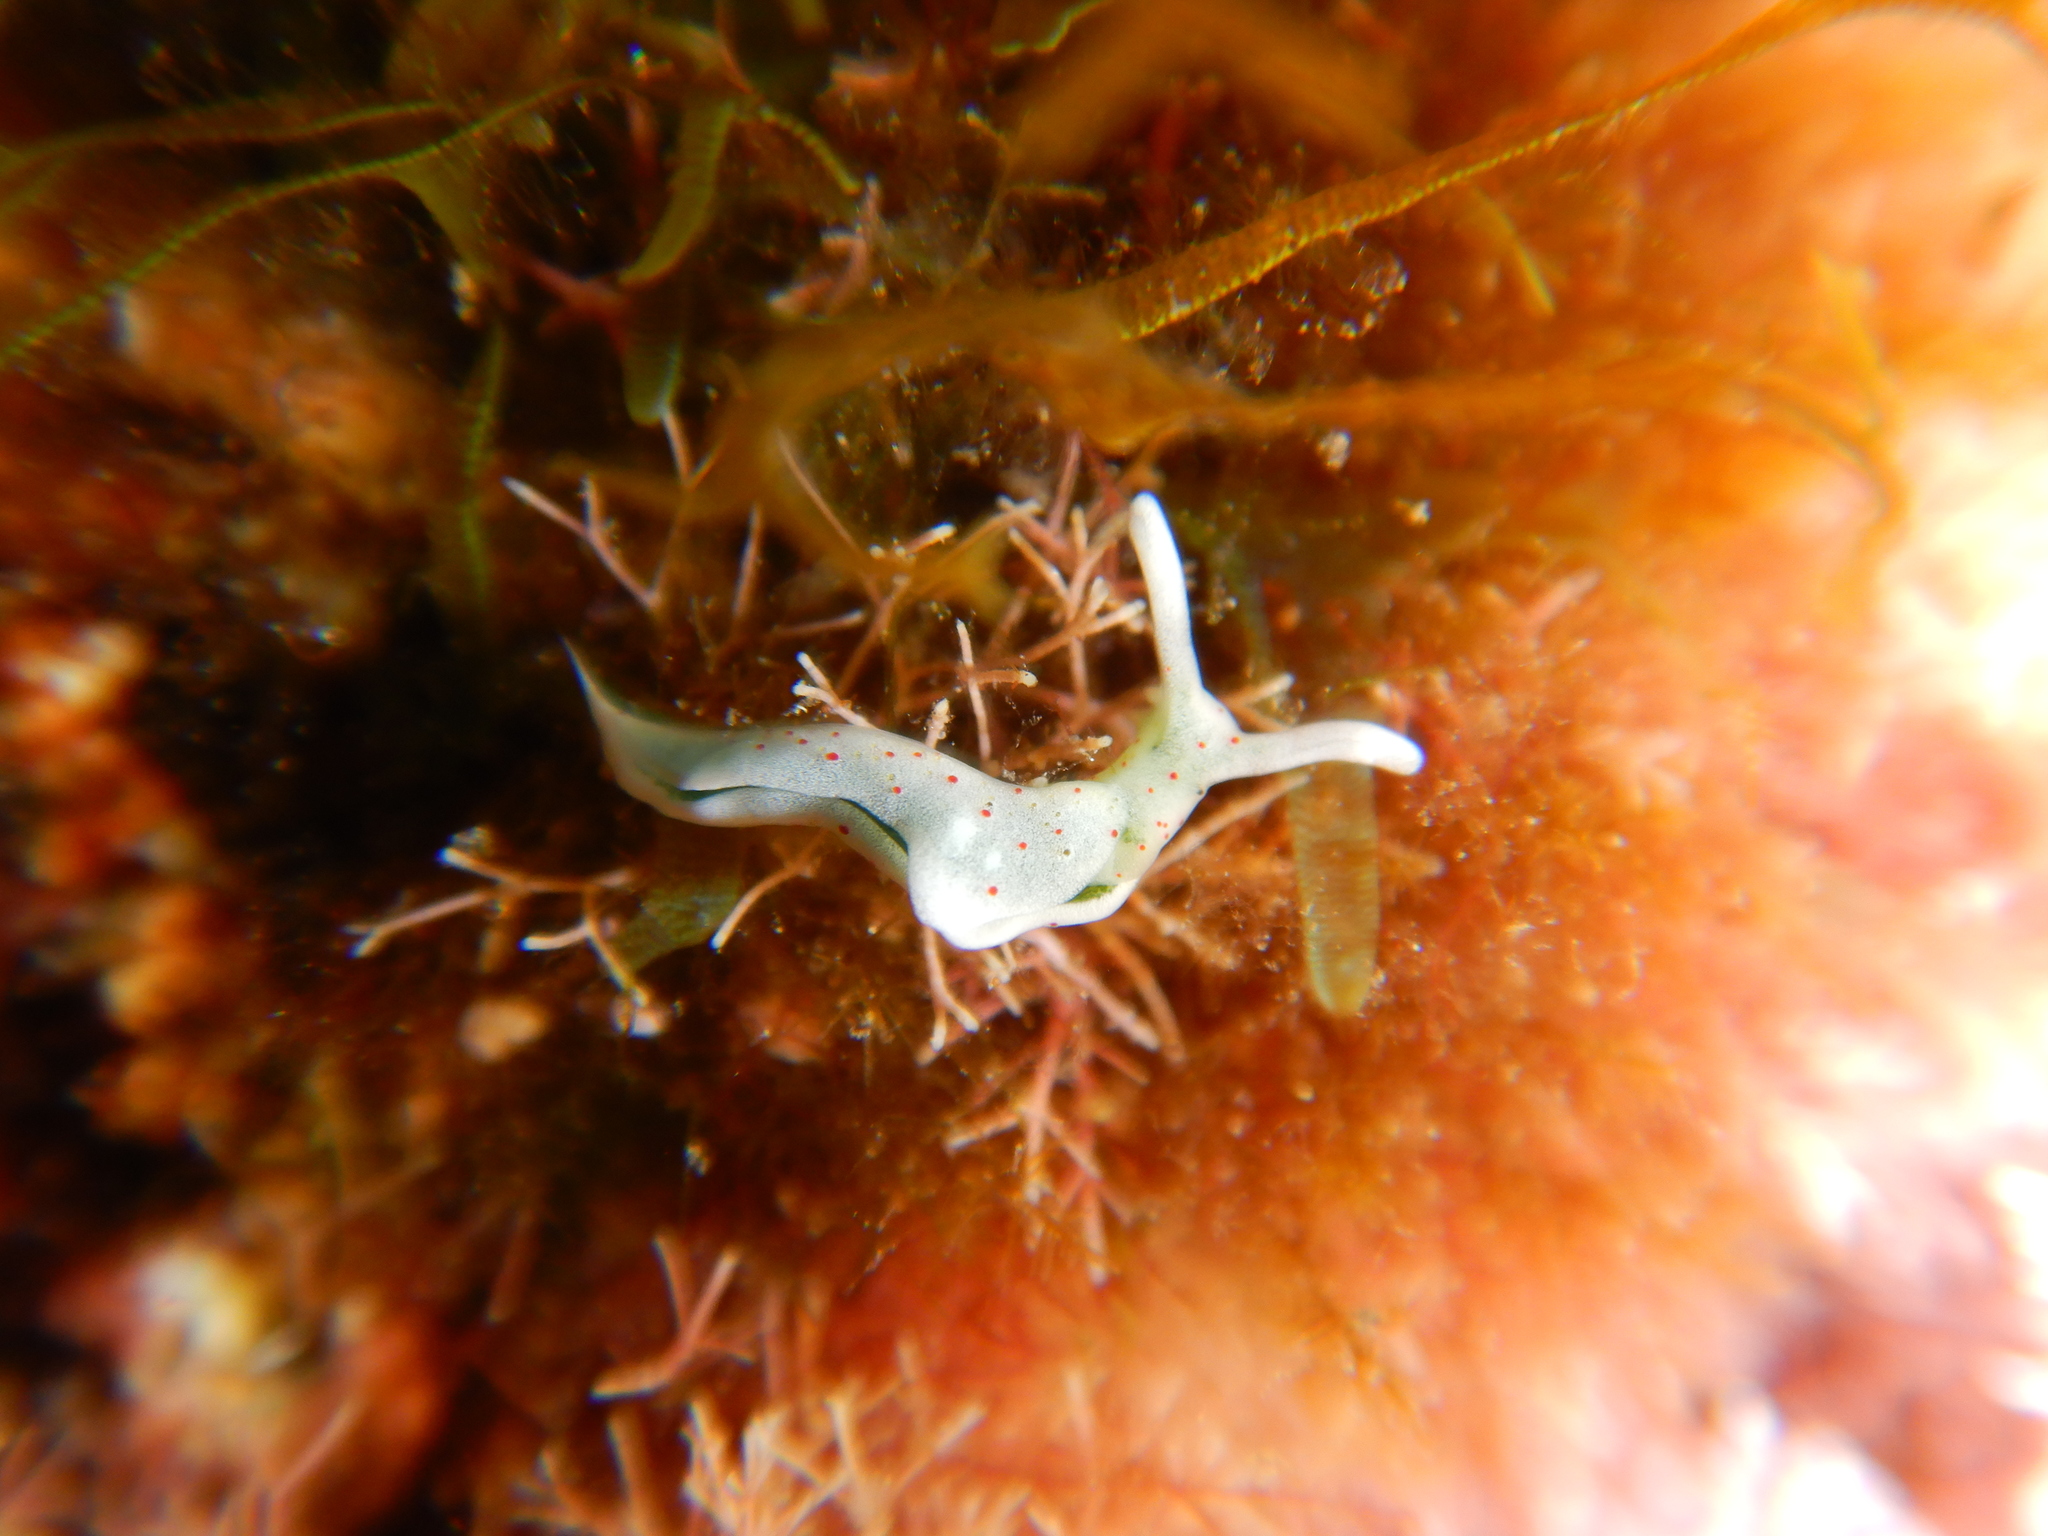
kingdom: Animalia
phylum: Mollusca
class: Gastropoda
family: Plakobranchidae
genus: Elysia
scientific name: Elysia timida
